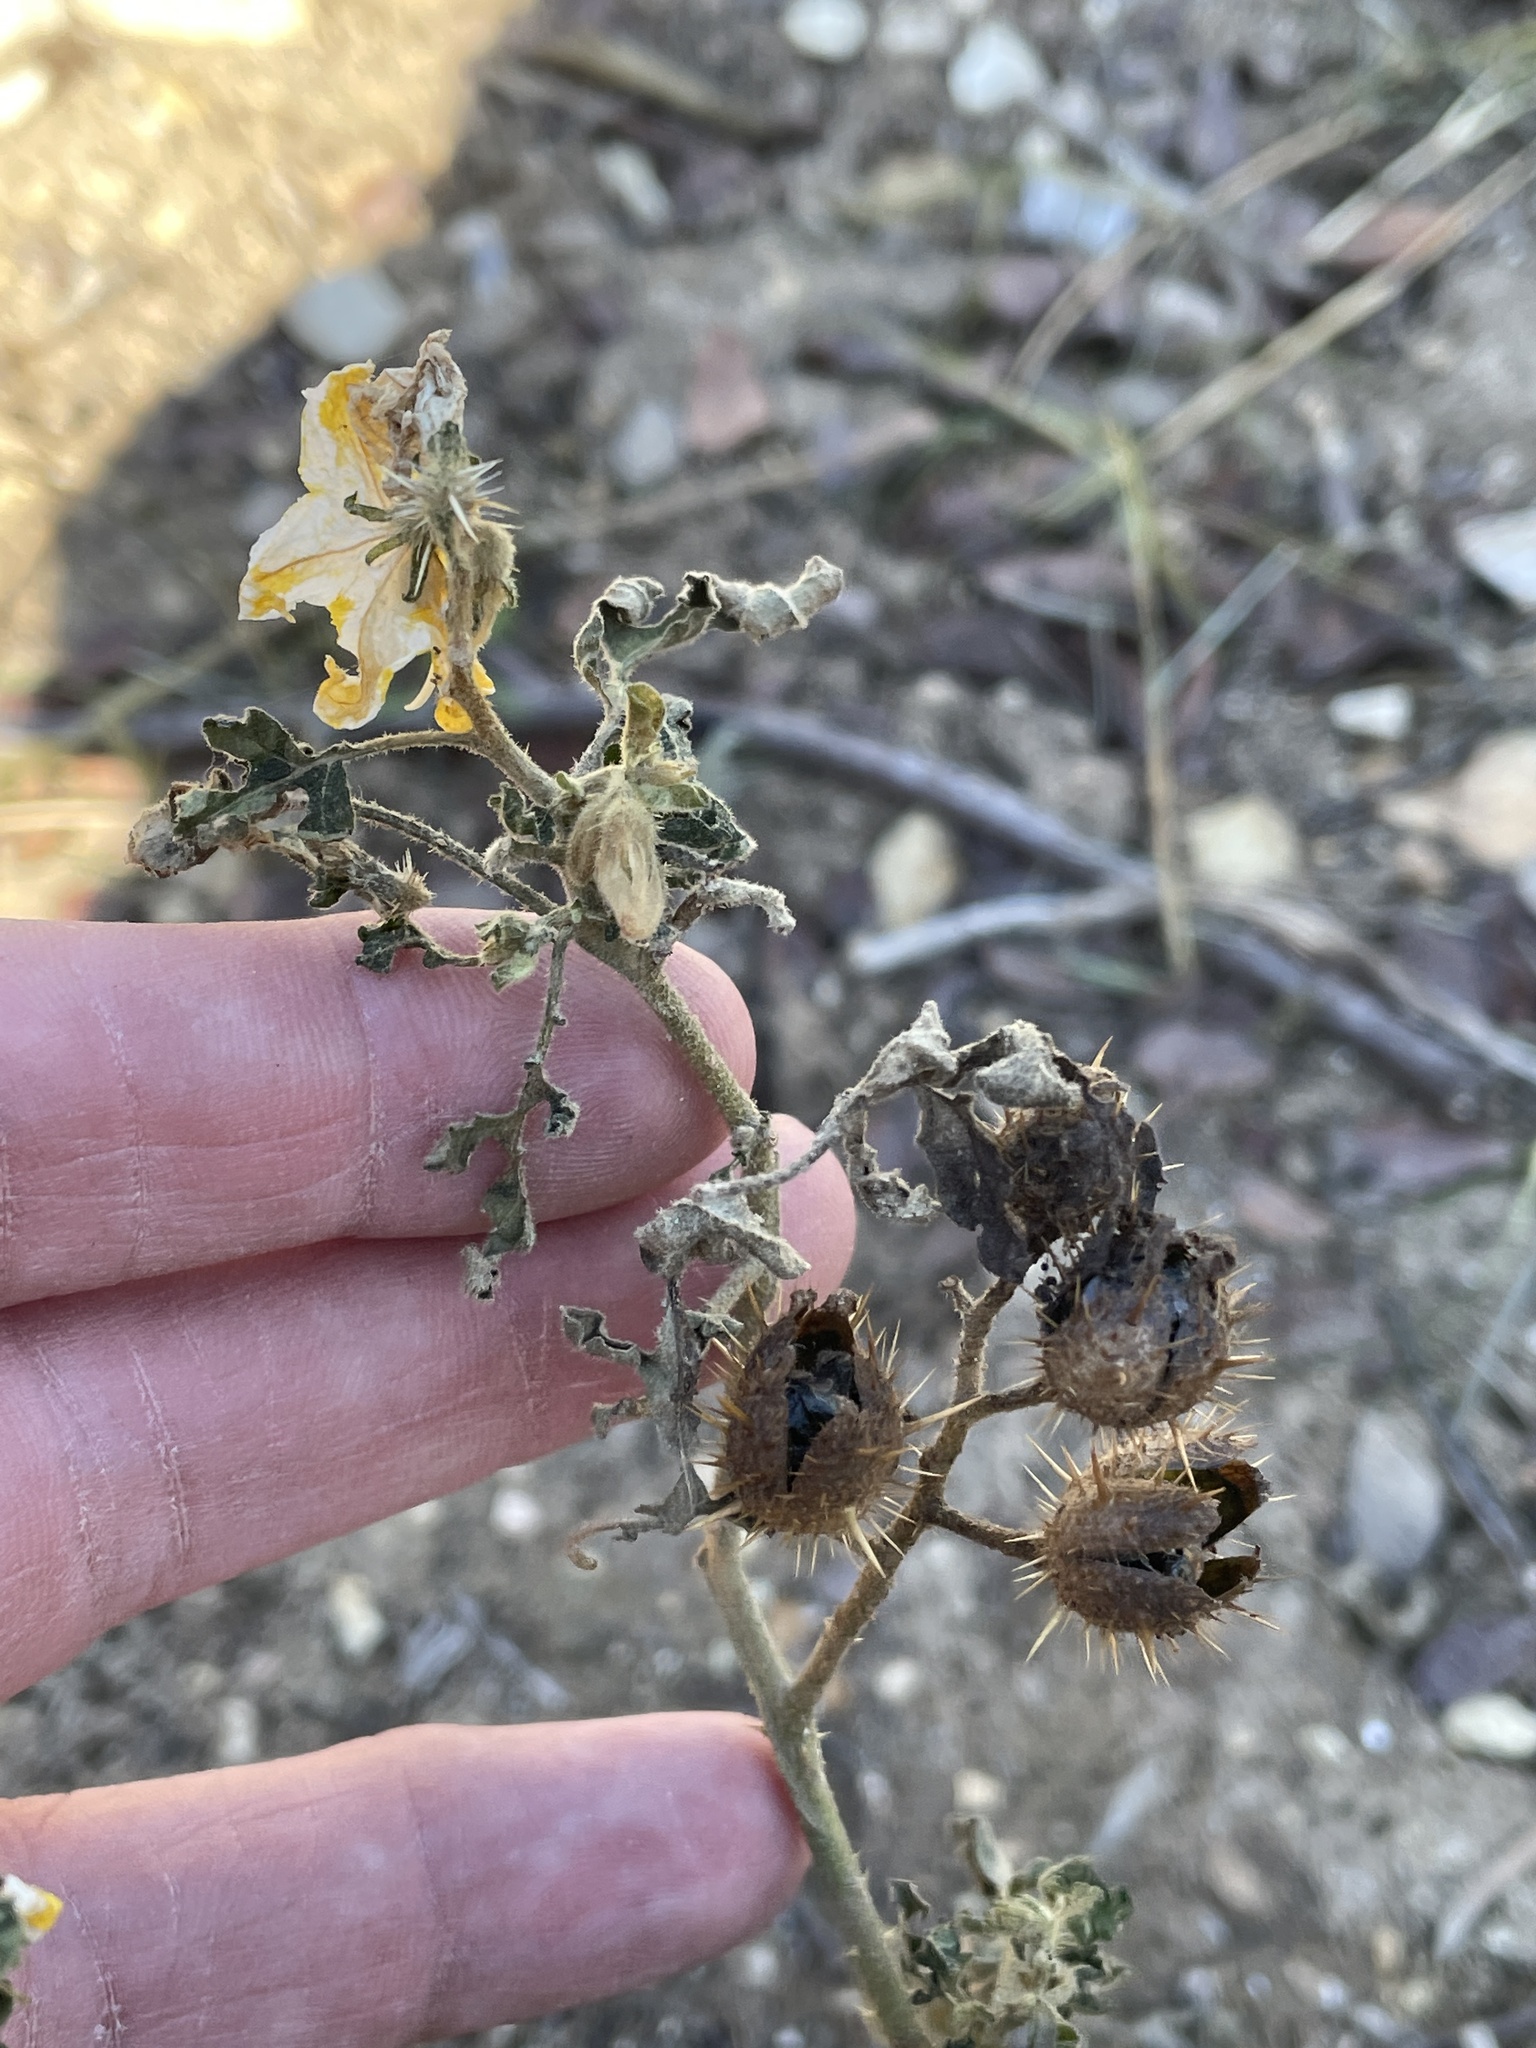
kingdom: Plantae
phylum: Tracheophyta
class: Magnoliopsida
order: Solanales
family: Solanaceae
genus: Solanum
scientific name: Solanum angustifolium
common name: Buffalobur nightshade
